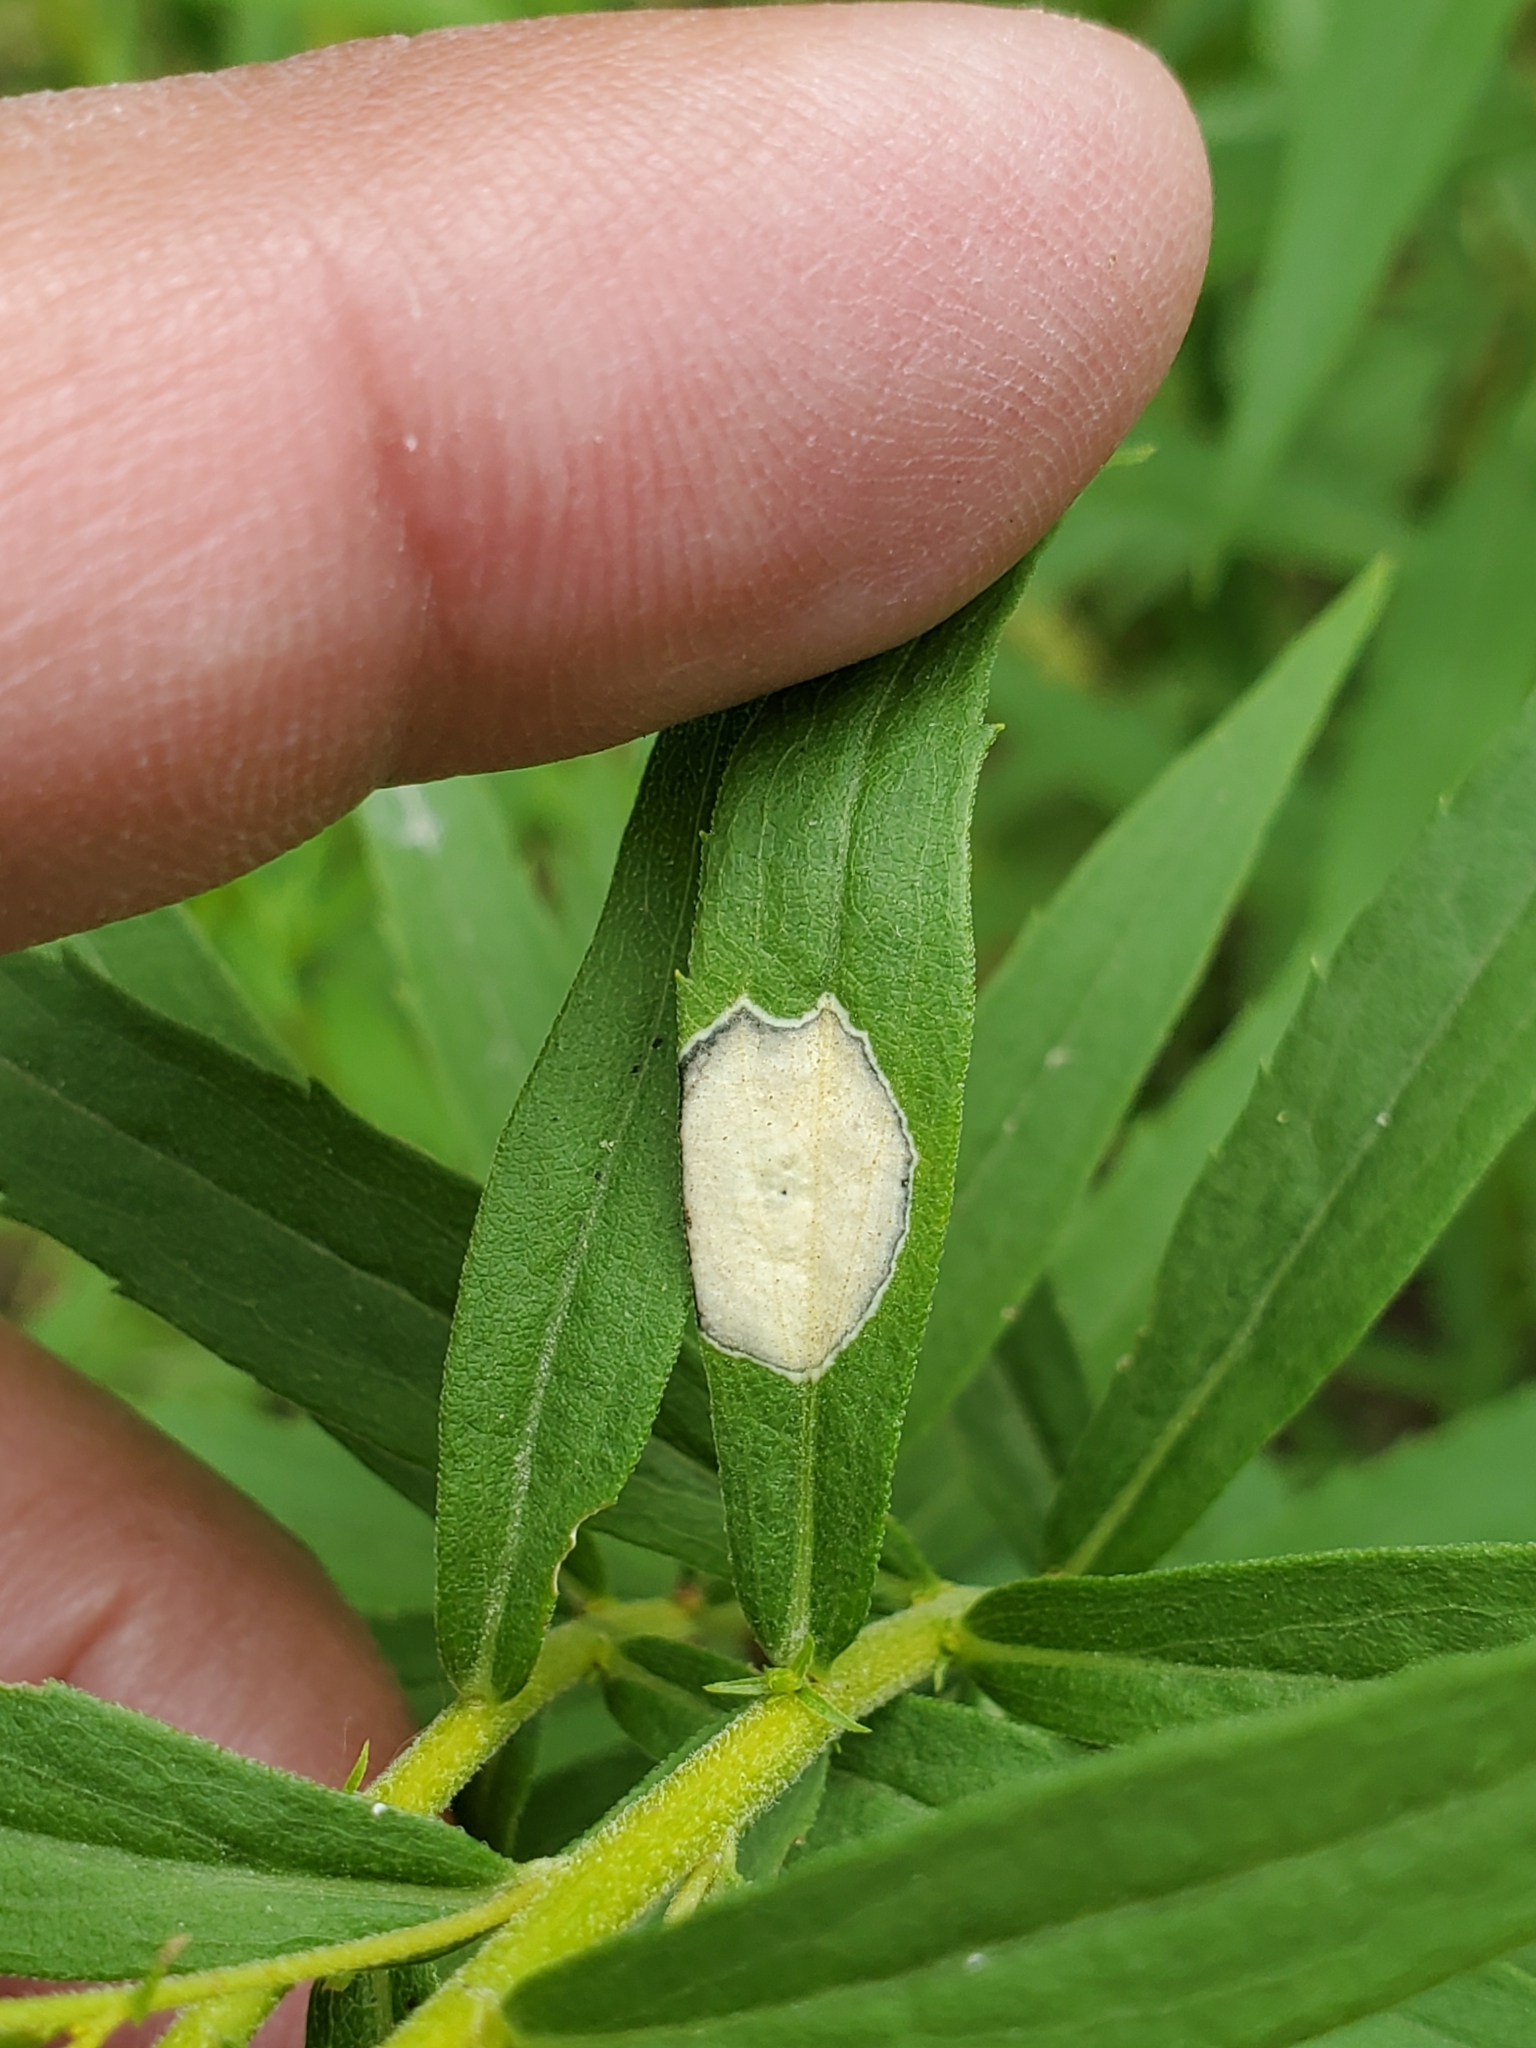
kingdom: Animalia
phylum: Arthropoda
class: Insecta
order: Diptera
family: Cecidomyiidae
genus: Asteromyia
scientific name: Asteromyia carbonifera
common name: Carbonifera goldenrod gall midge
